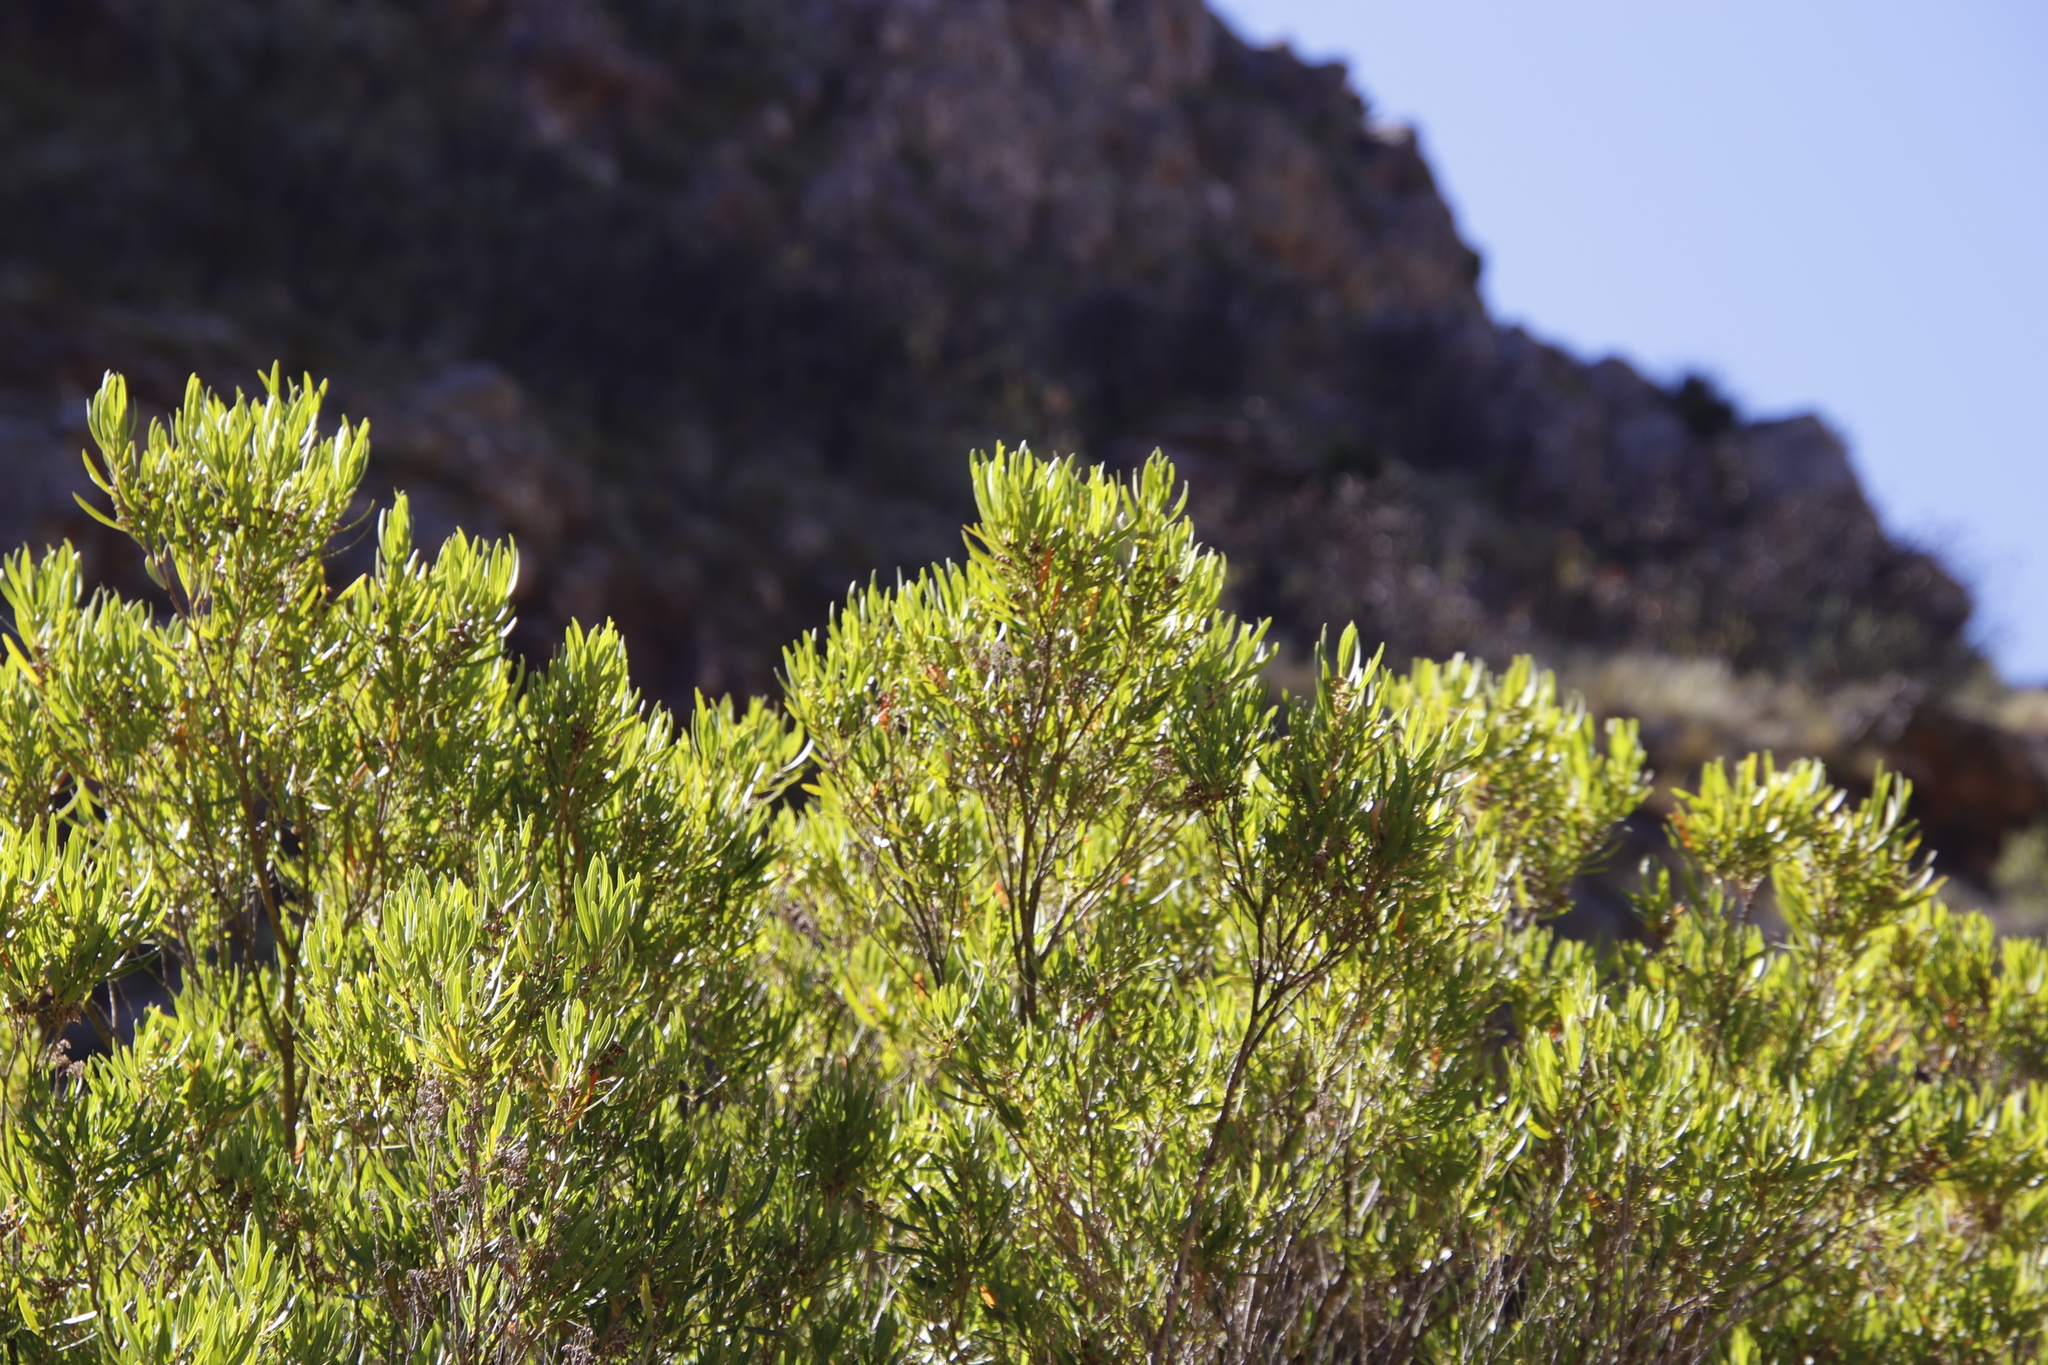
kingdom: Plantae
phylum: Tracheophyta
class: Magnoliopsida
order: Myrtales
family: Myrtaceae
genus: Callistemon
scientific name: Callistemon lanceolatus
